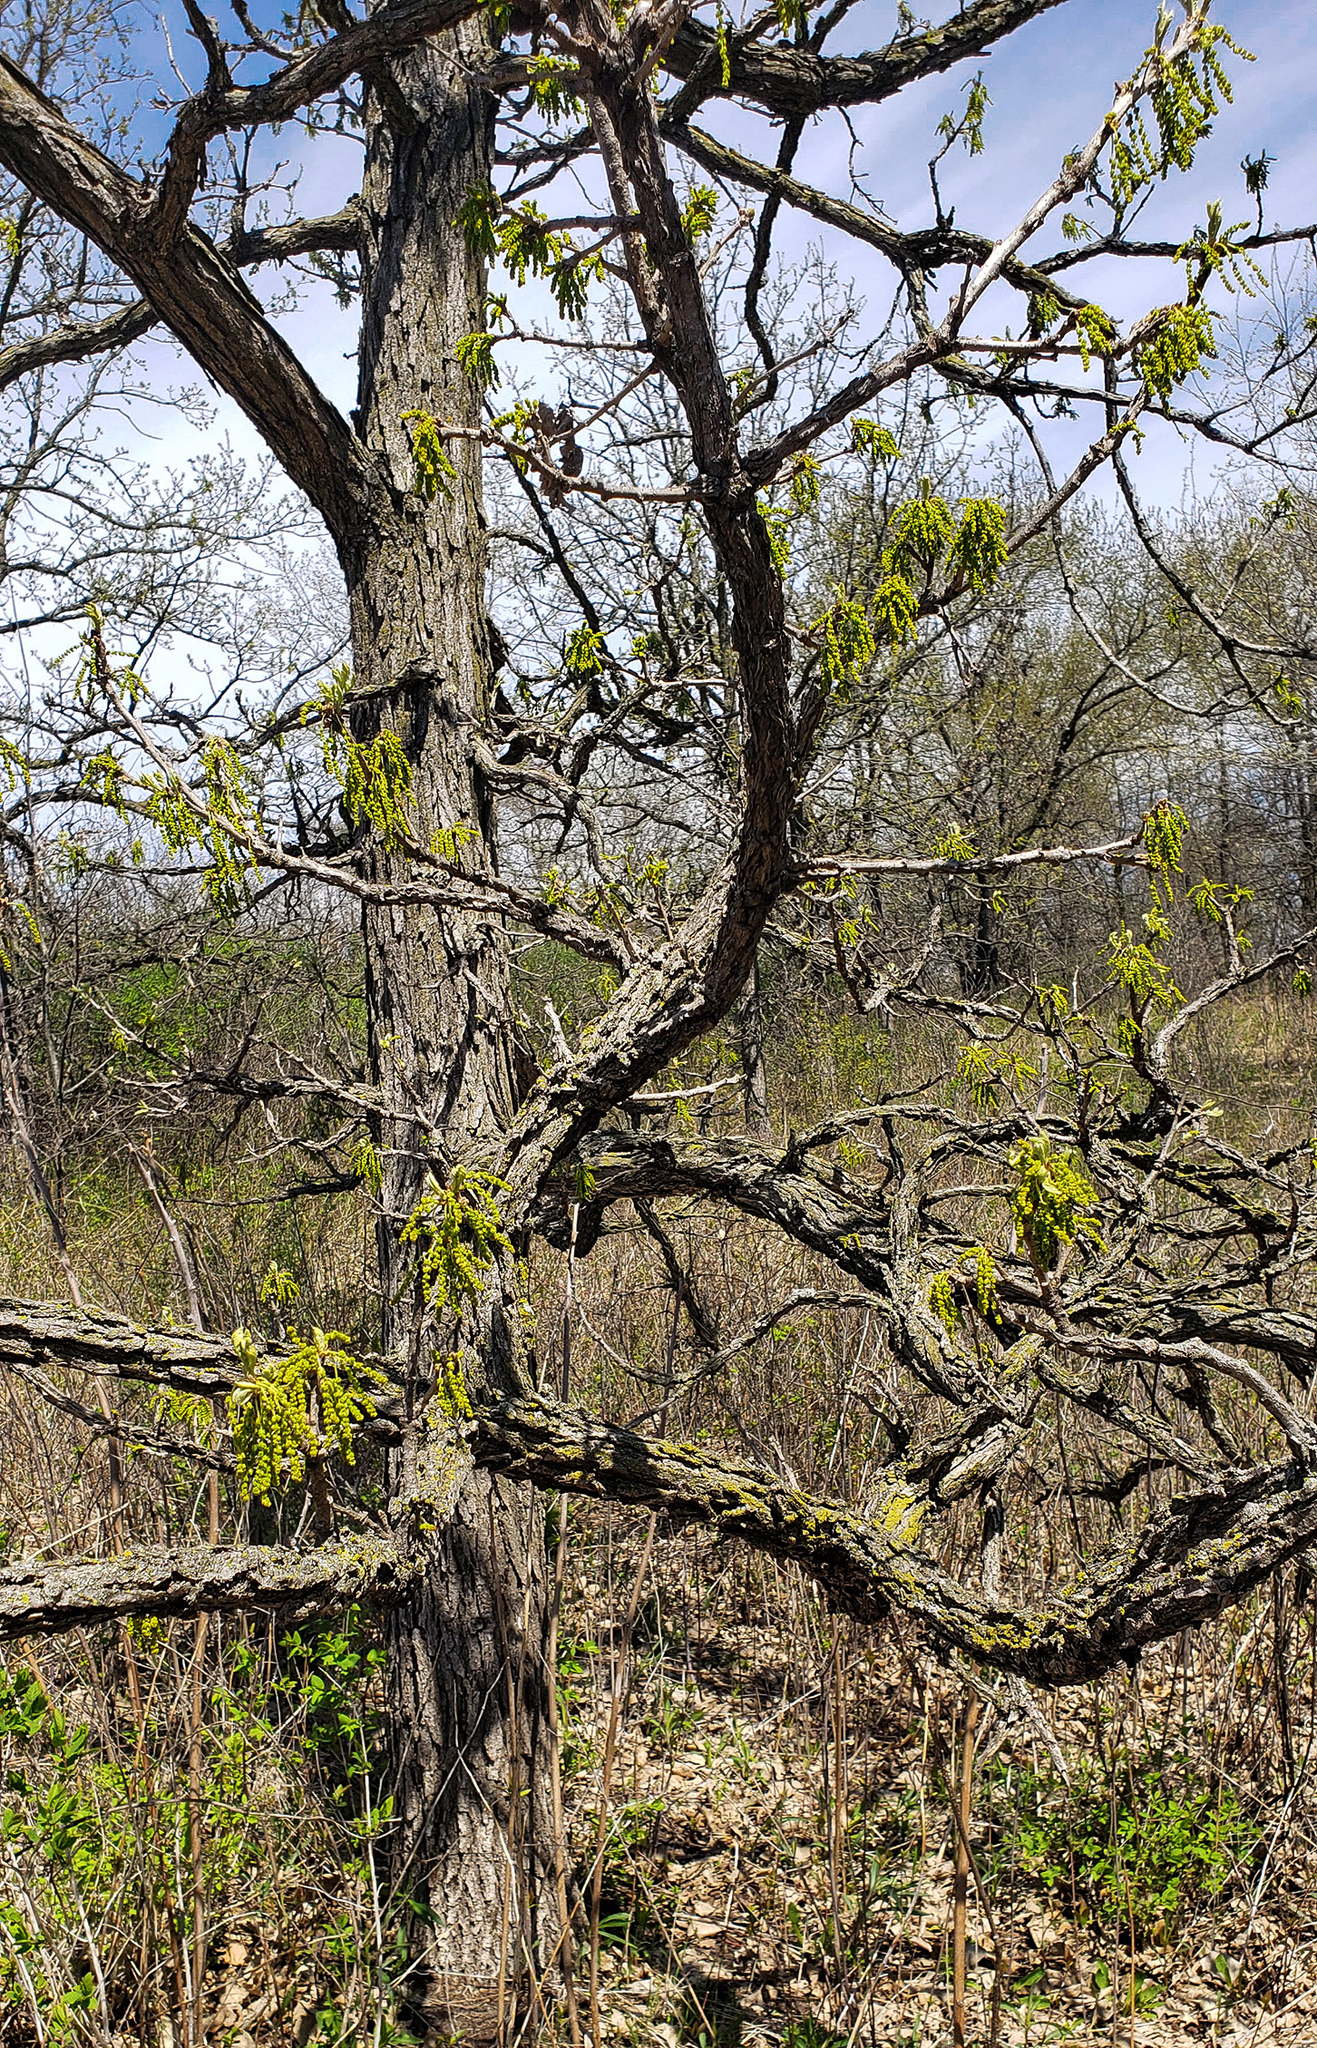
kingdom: Plantae
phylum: Tracheophyta
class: Magnoliopsida
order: Fagales
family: Fagaceae
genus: Quercus
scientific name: Quercus macrocarpa
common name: Bur oak
